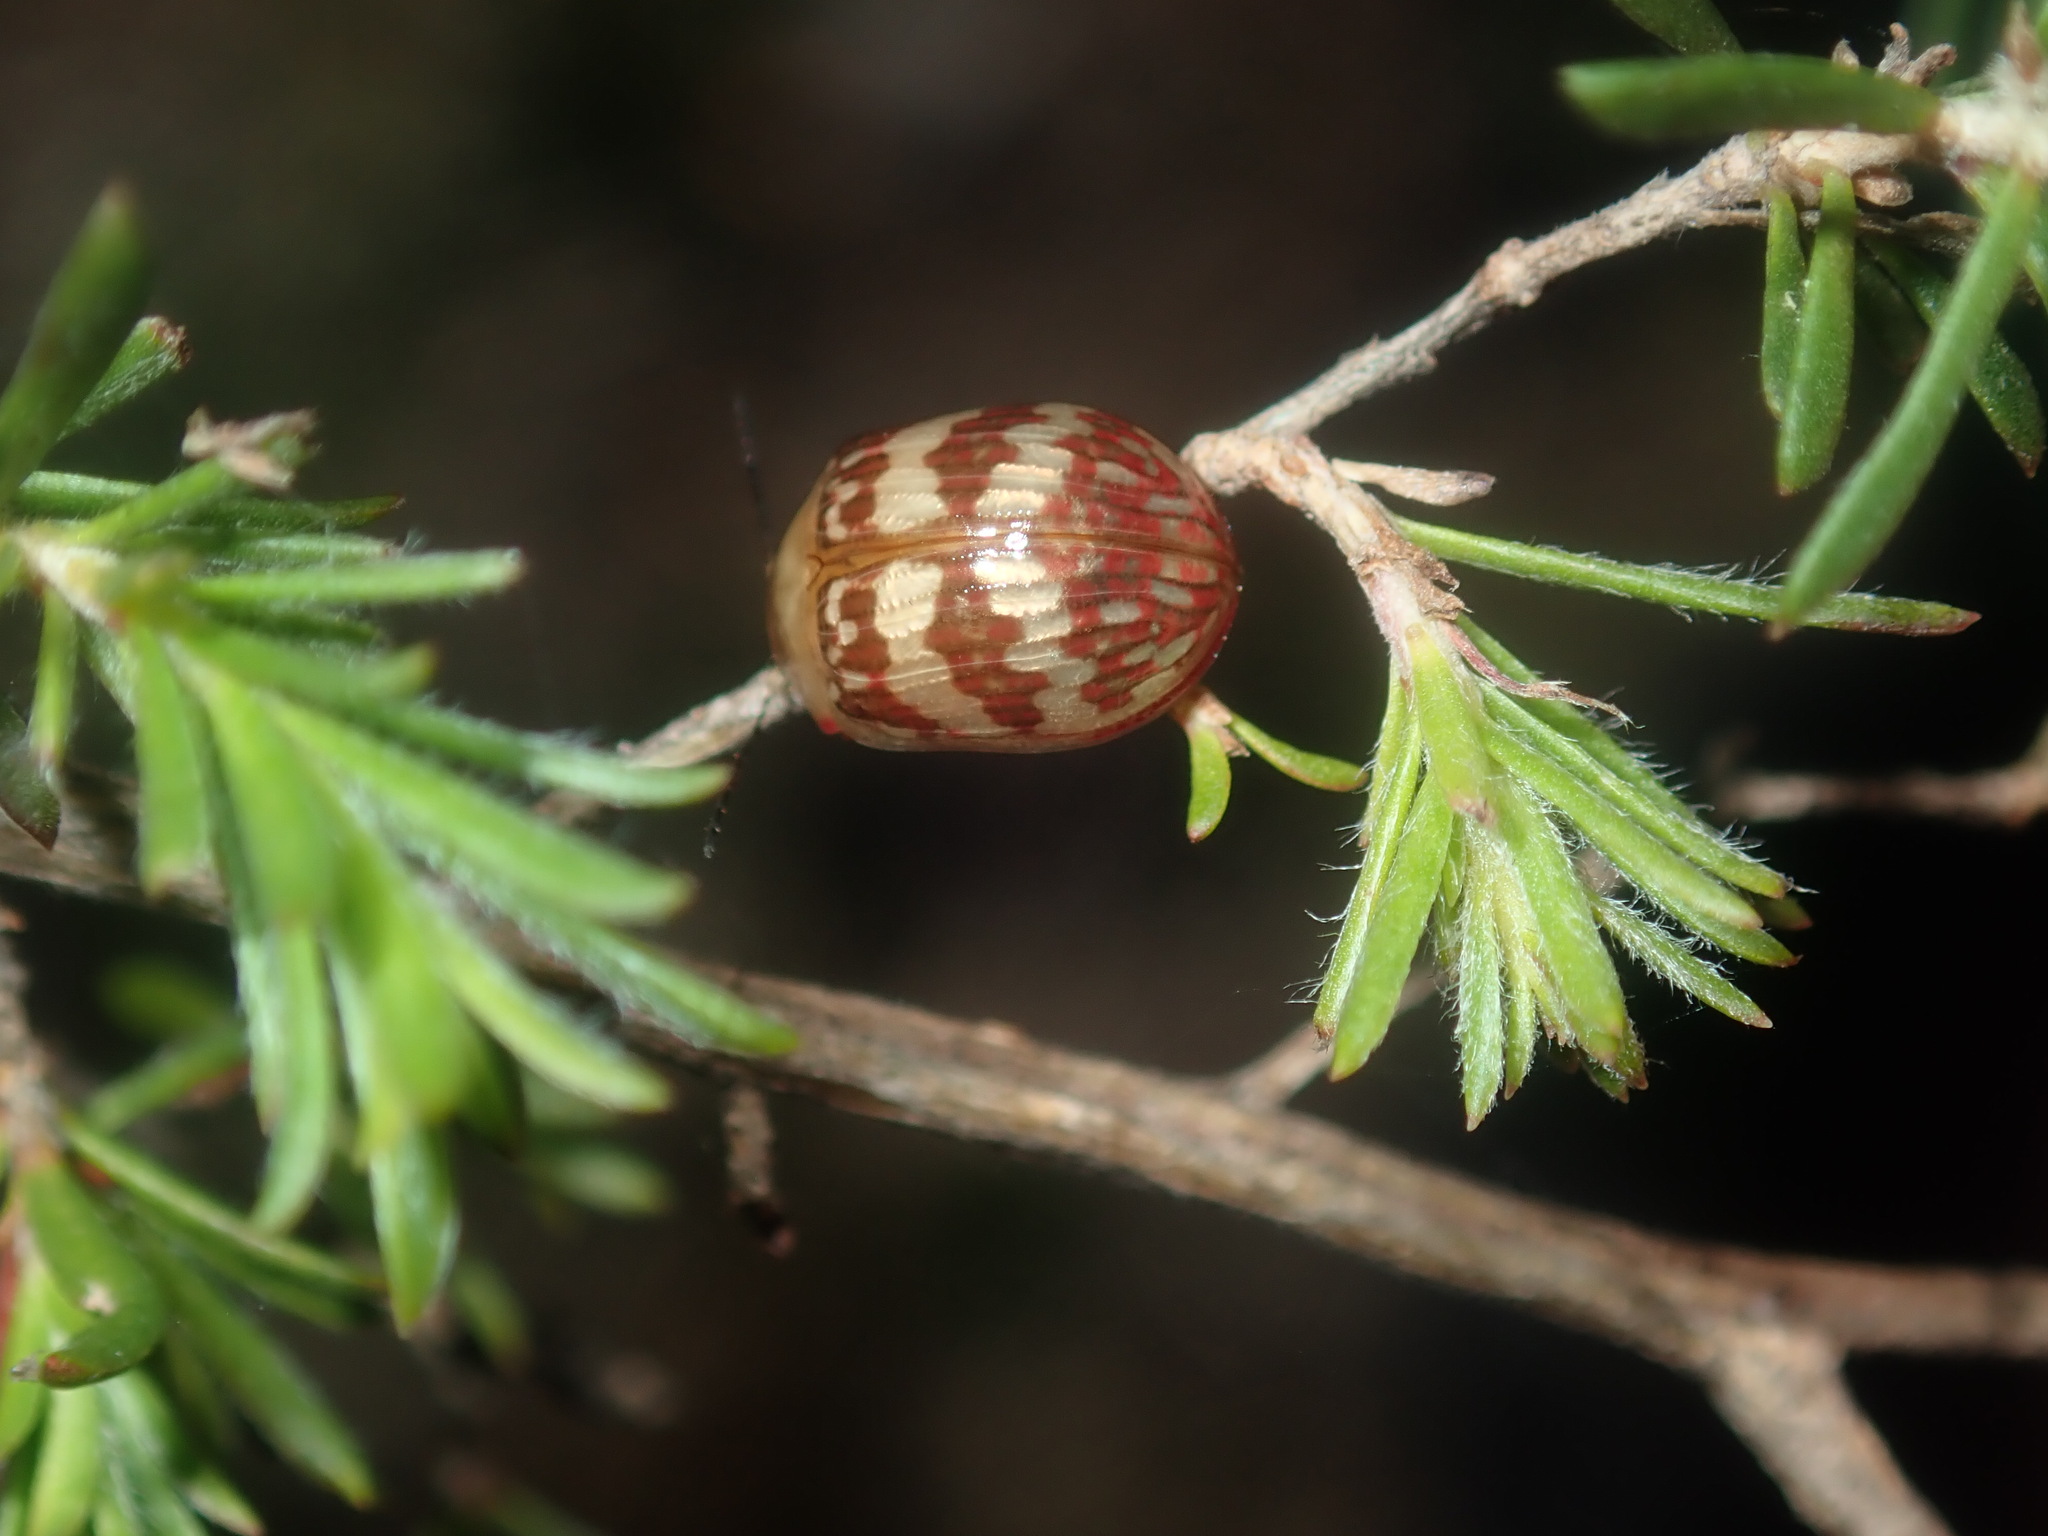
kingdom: Animalia
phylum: Arthropoda
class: Insecta
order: Coleoptera
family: Chrysomelidae
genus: Paropsis
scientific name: Paropsis
